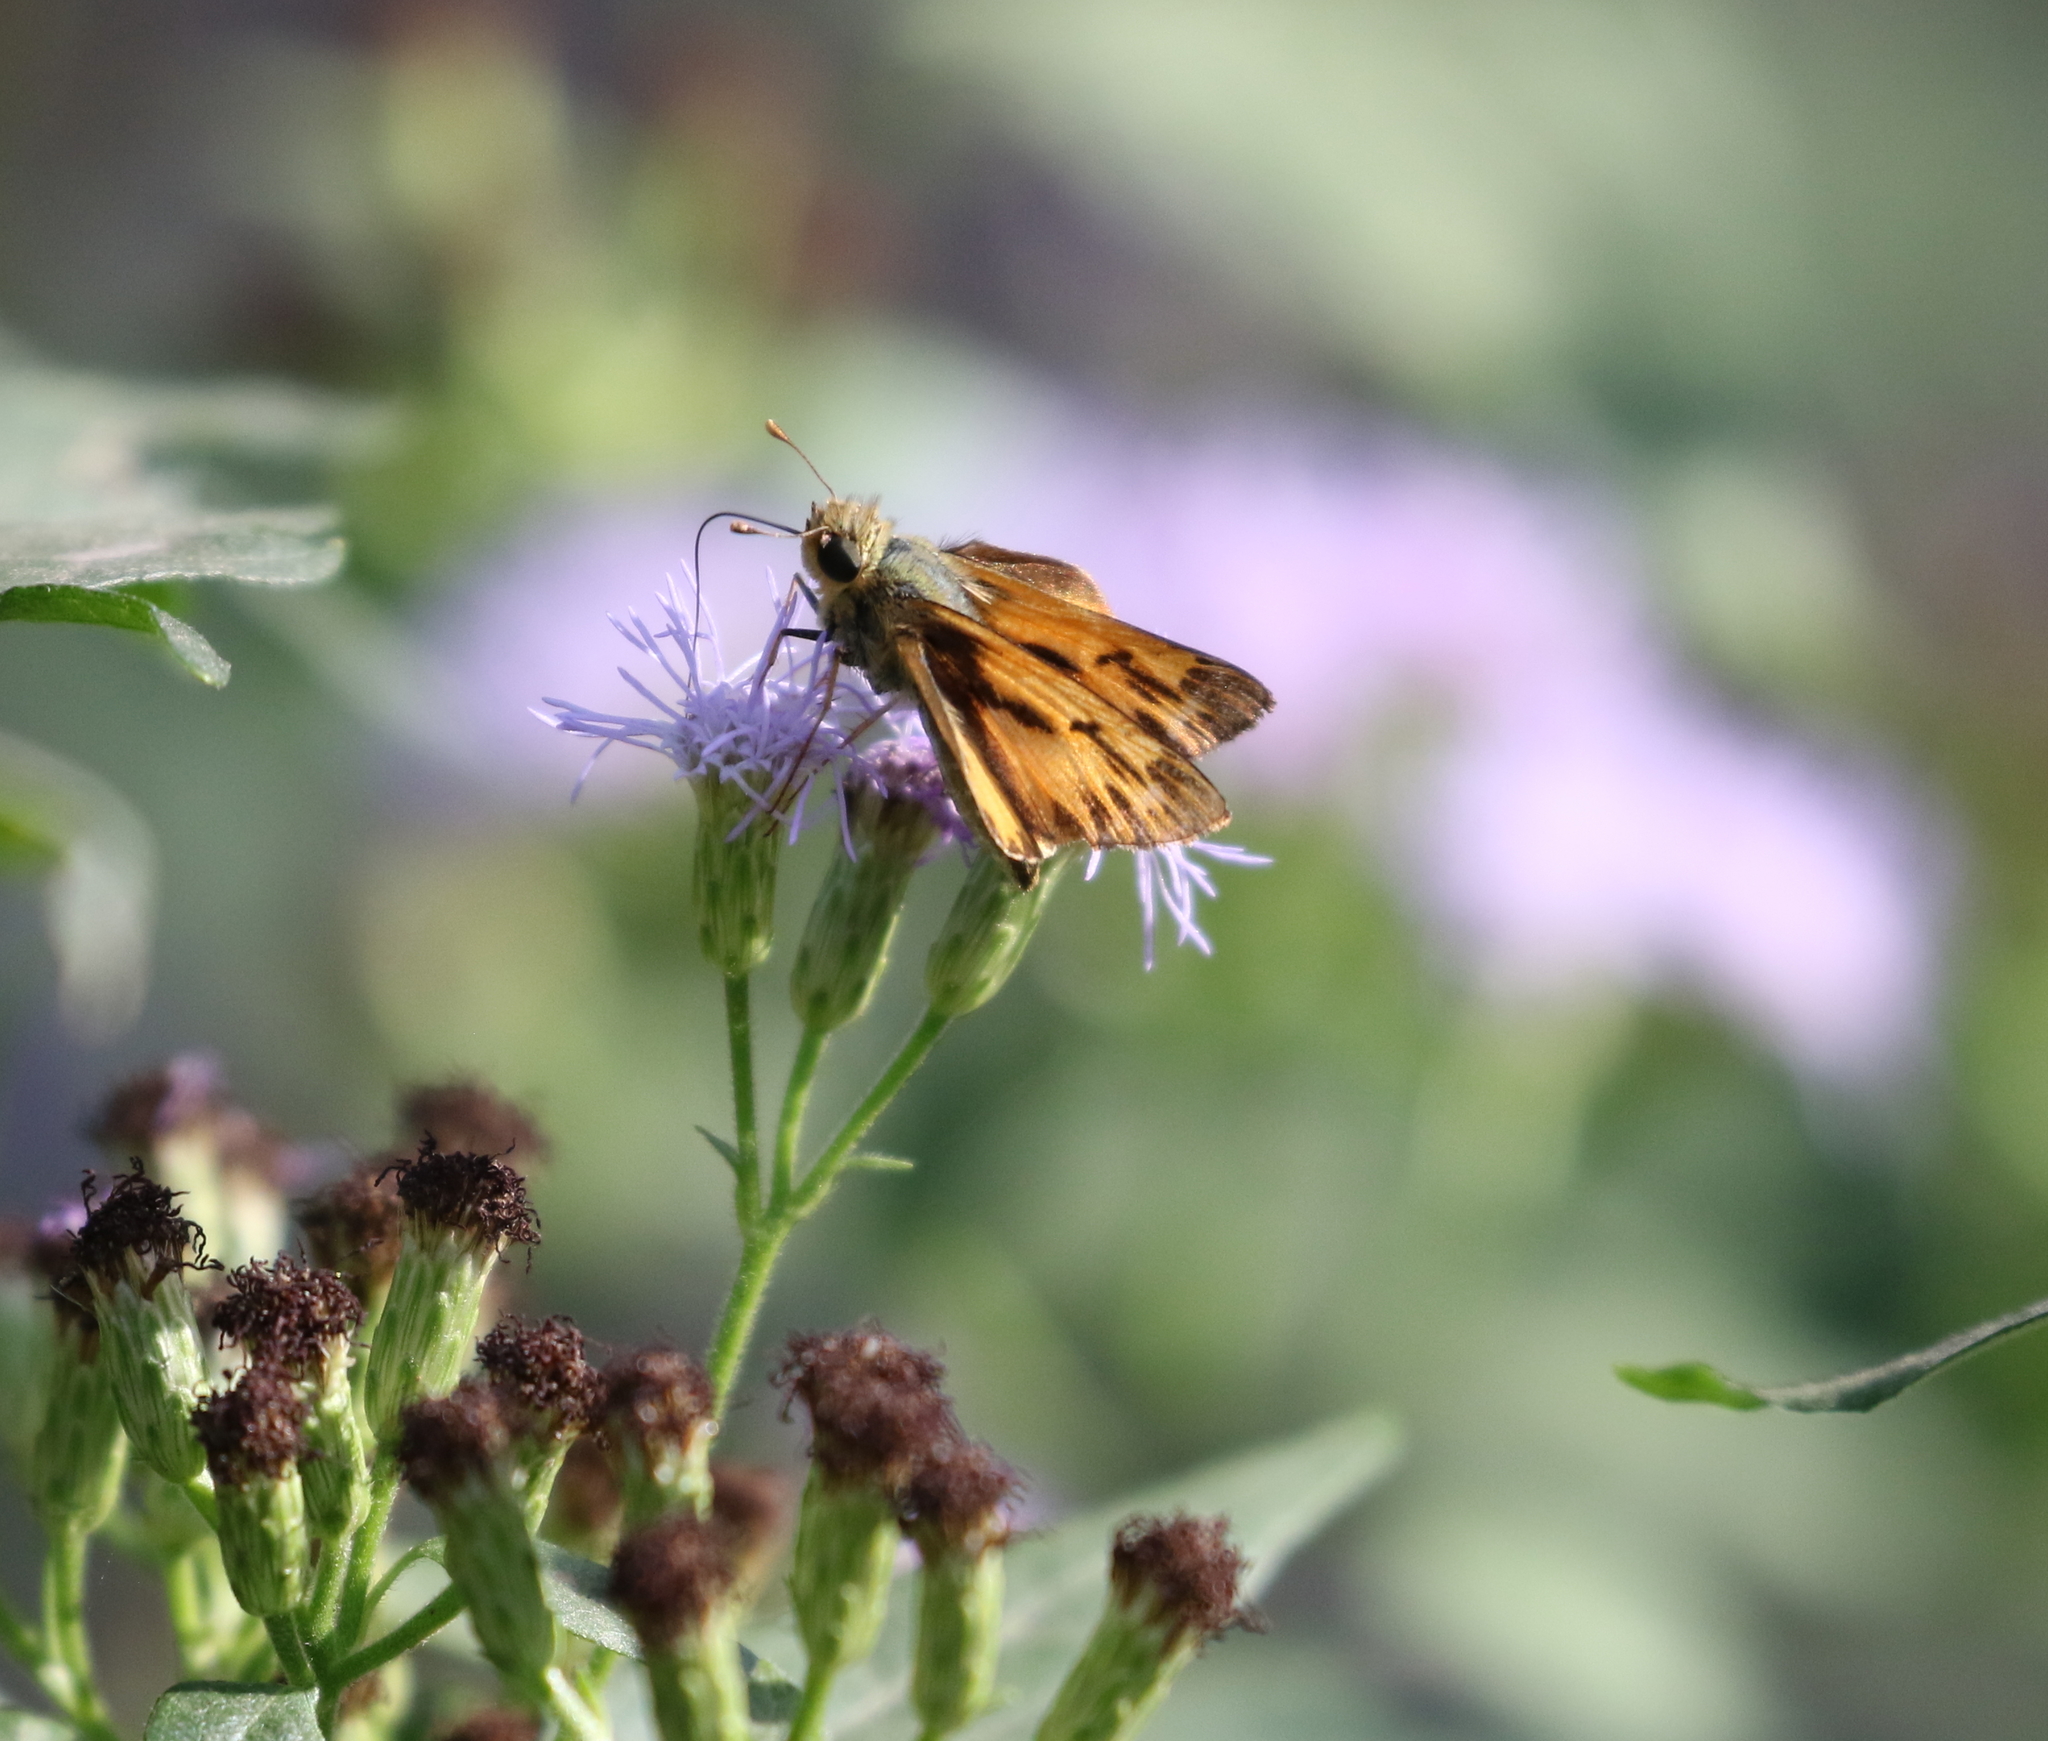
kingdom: Animalia
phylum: Arthropoda
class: Insecta
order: Lepidoptera
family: Hesperiidae
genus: Hylephila
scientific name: Hylephila phyleus
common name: Fiery skipper
